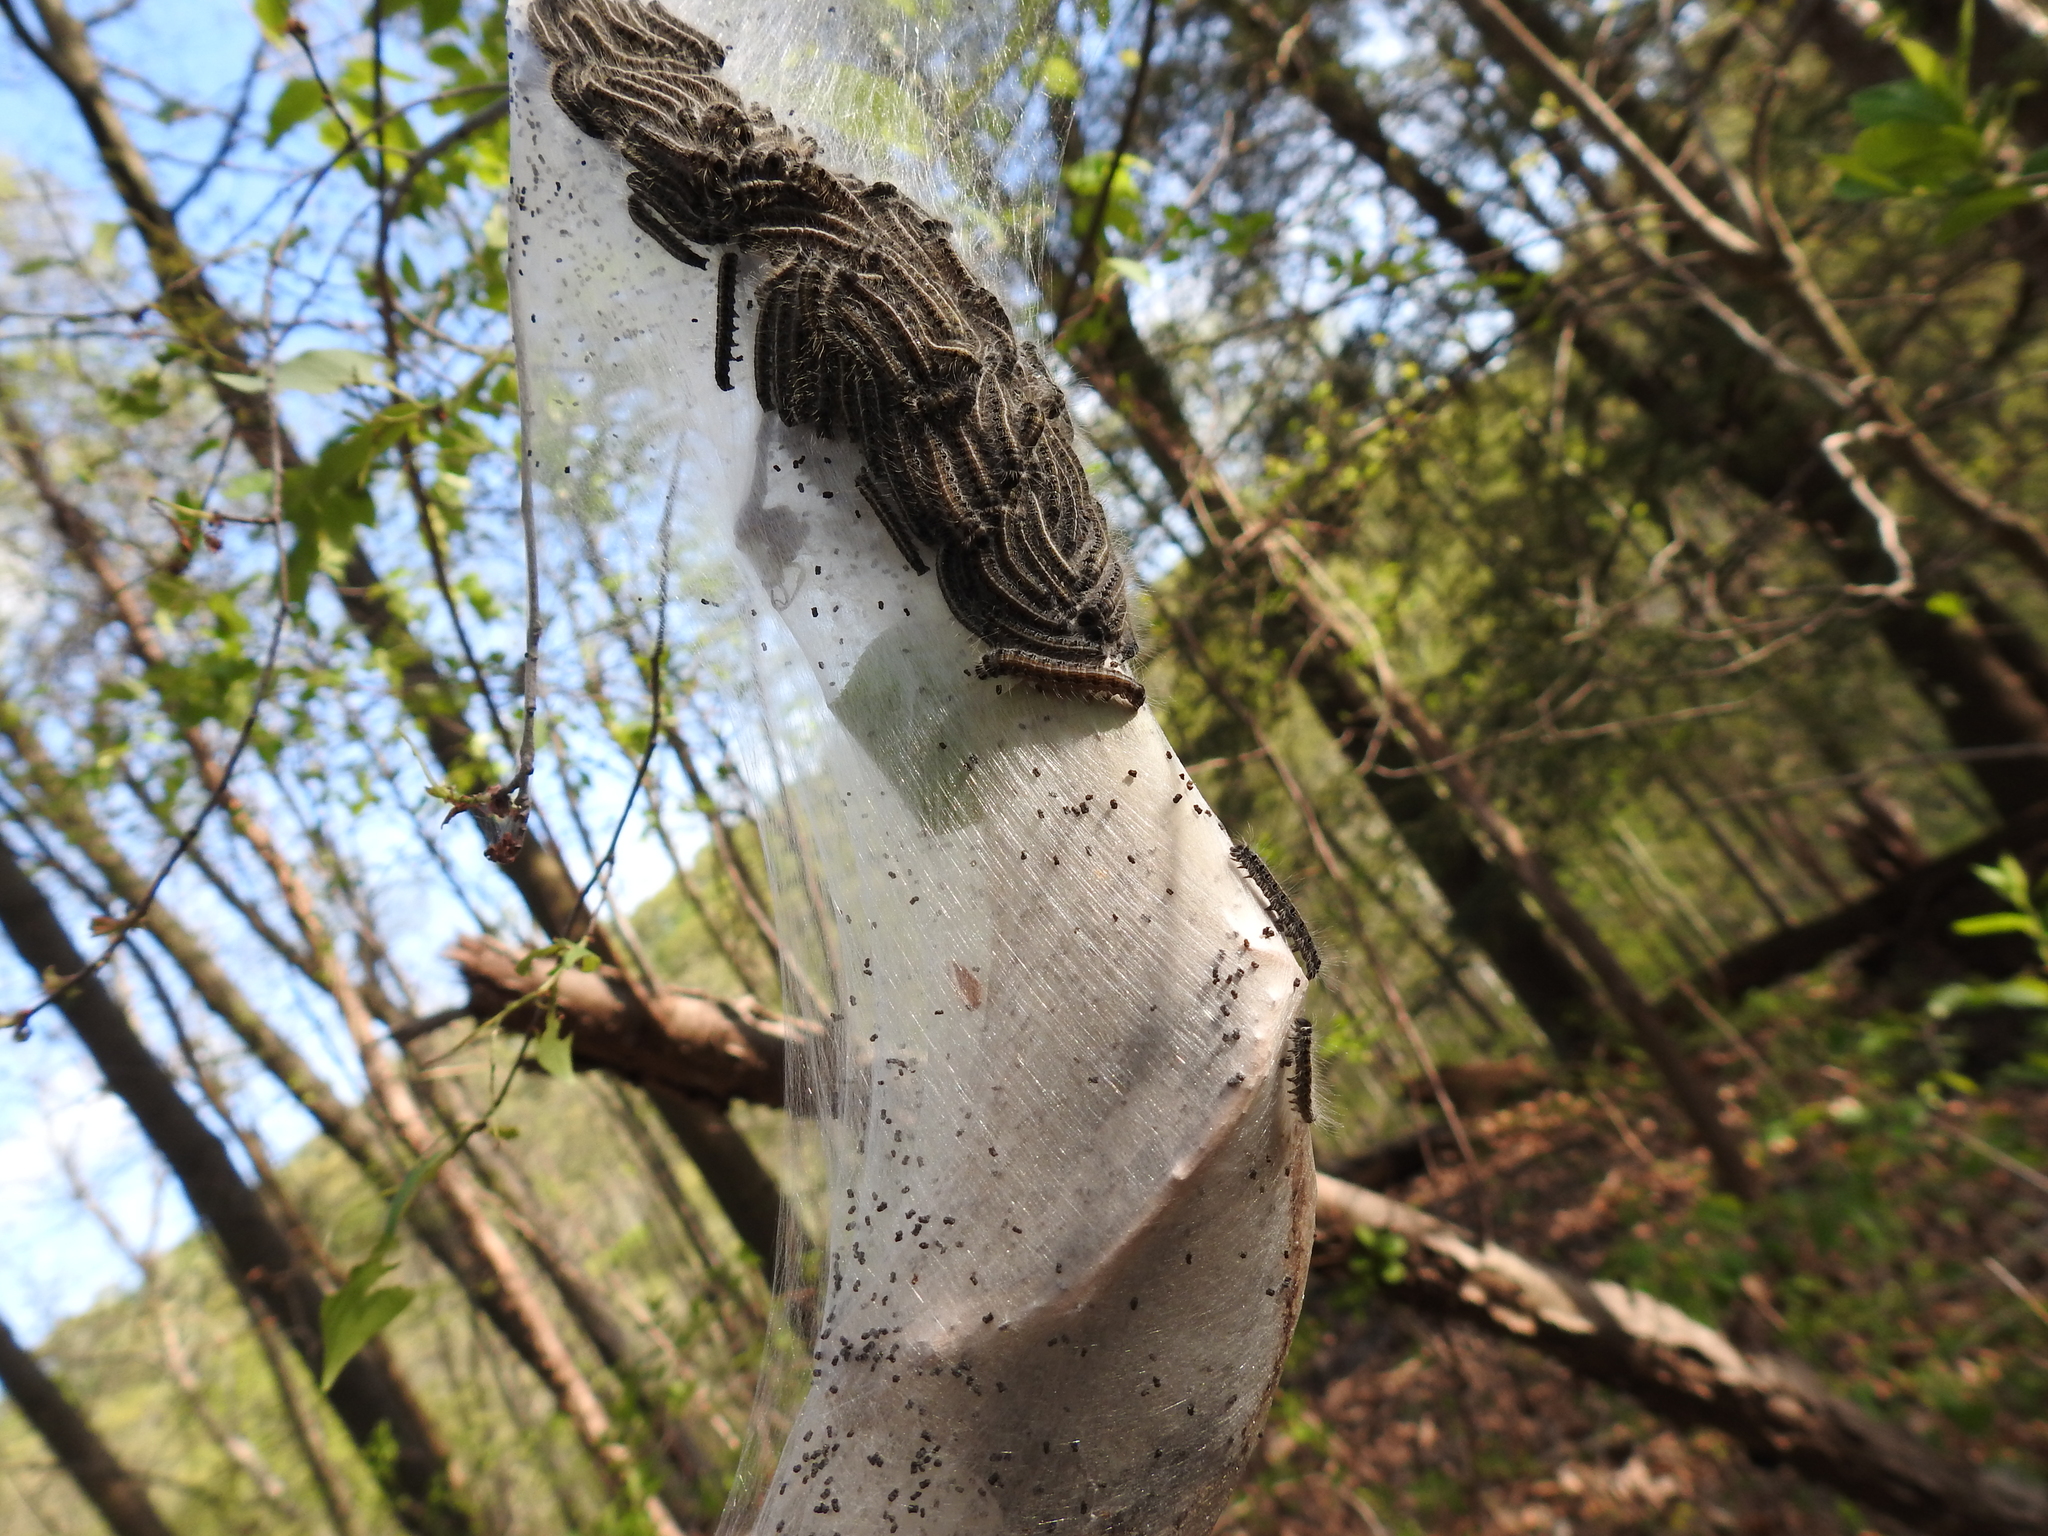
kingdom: Animalia
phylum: Arthropoda
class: Insecta
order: Lepidoptera
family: Lasiocampidae
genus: Malacosoma
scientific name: Malacosoma americana
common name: Eastern tent caterpillar moth
